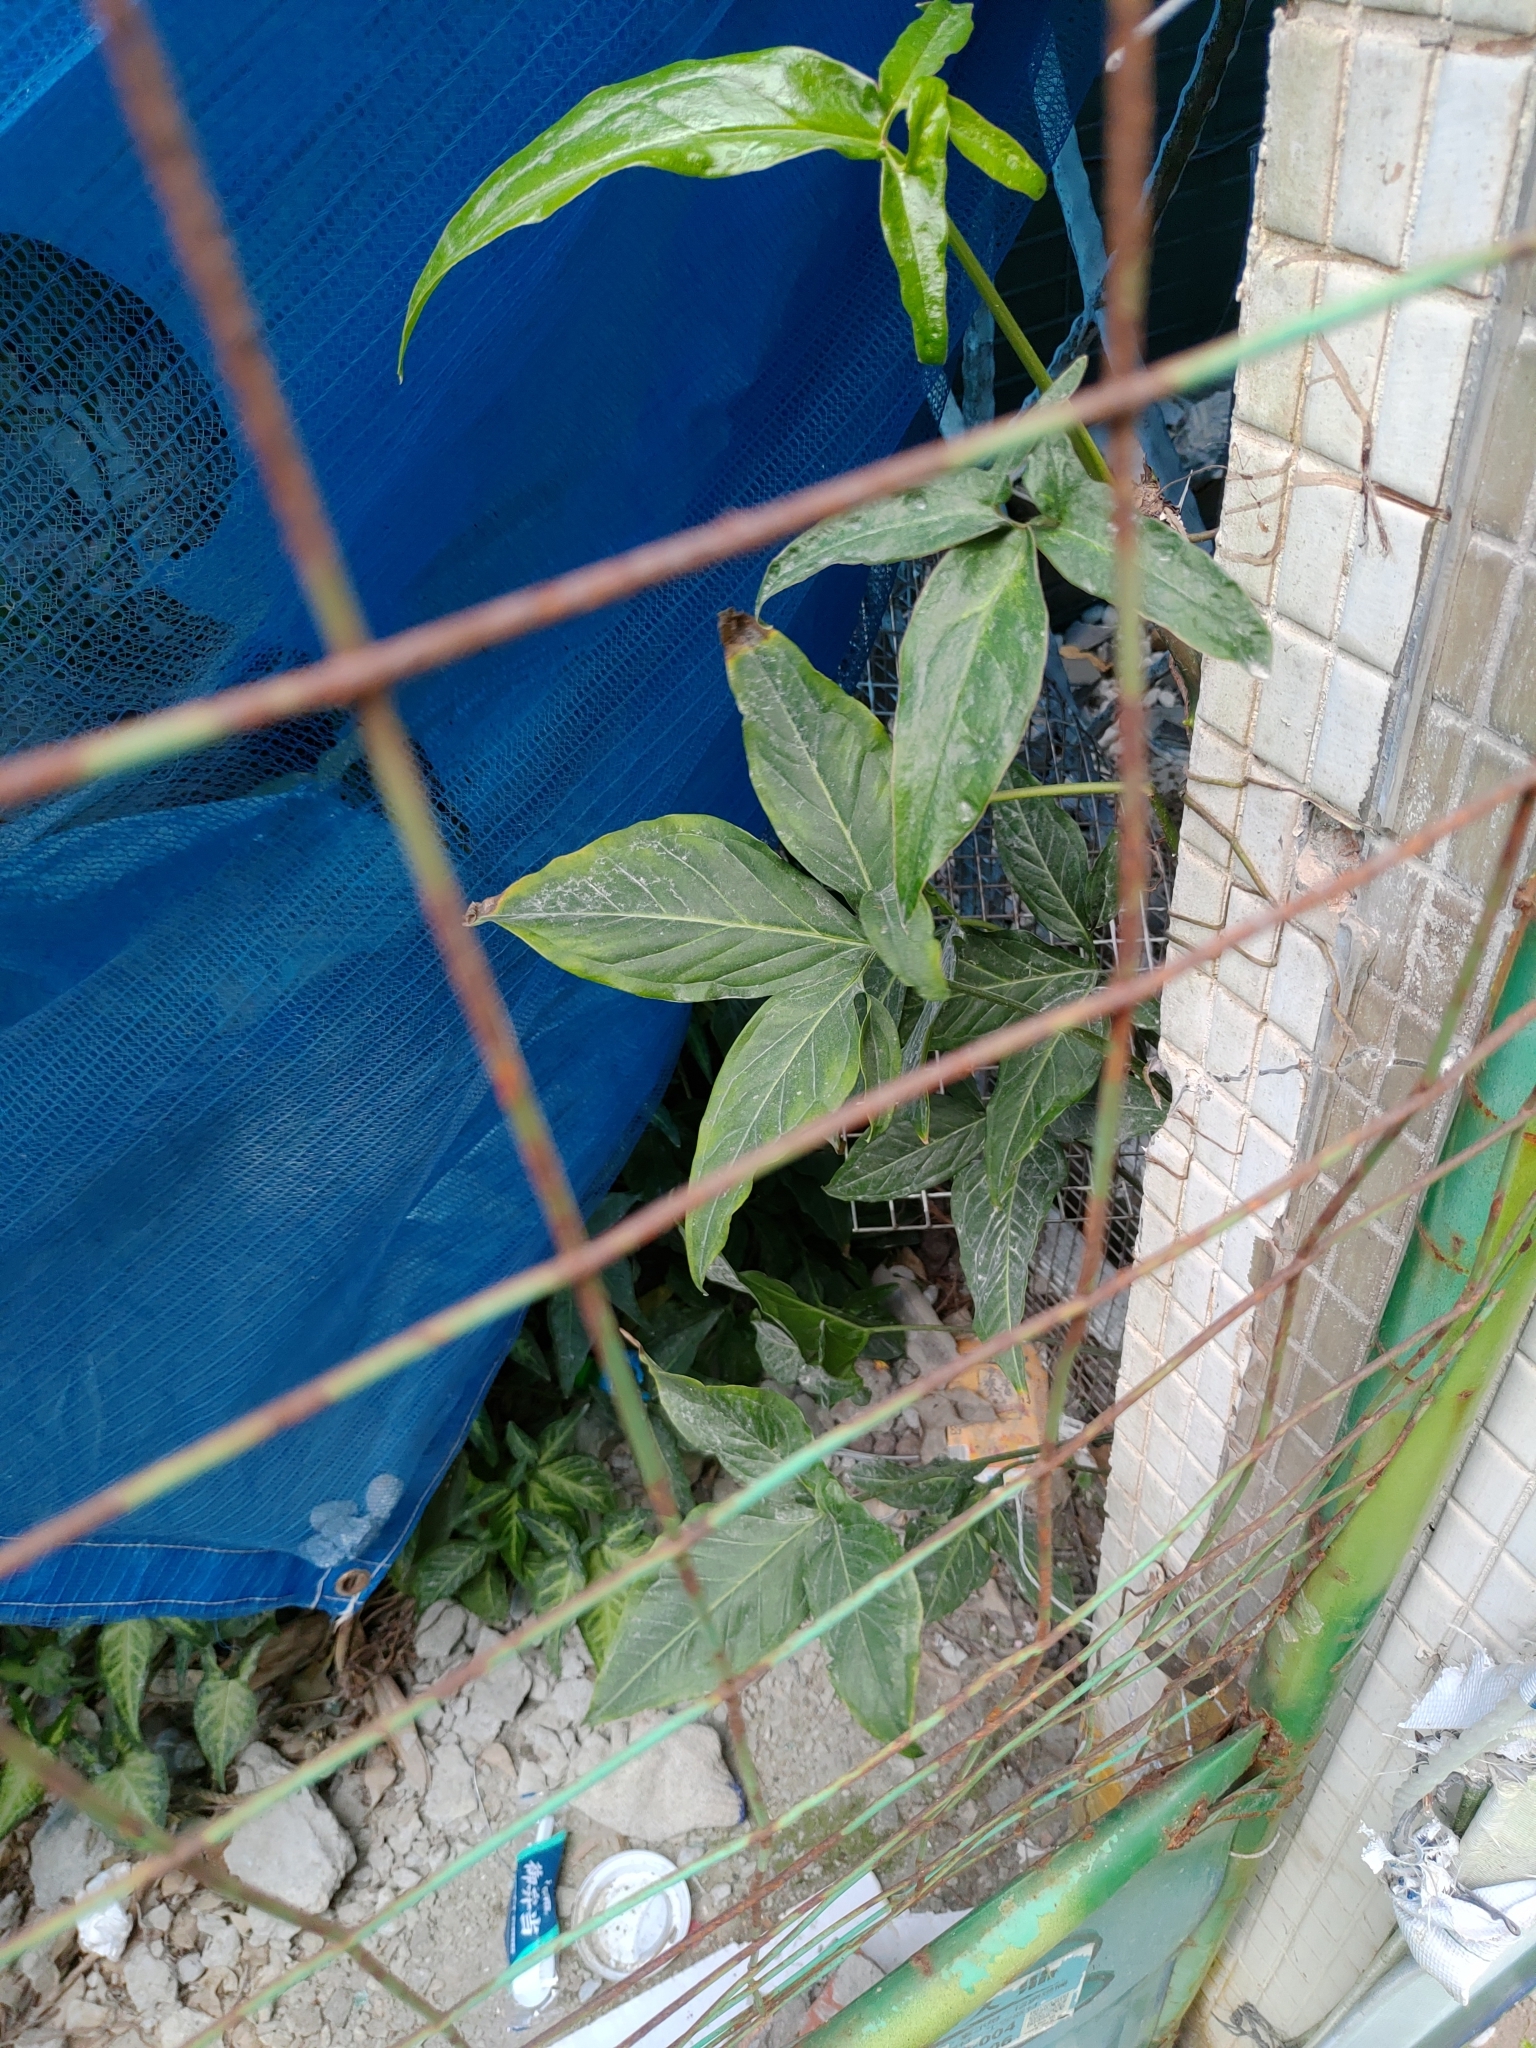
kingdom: Plantae
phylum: Tracheophyta
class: Liliopsida
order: Alismatales
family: Araceae
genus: Syngonium
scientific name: Syngonium angustatum
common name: Fivefingers
